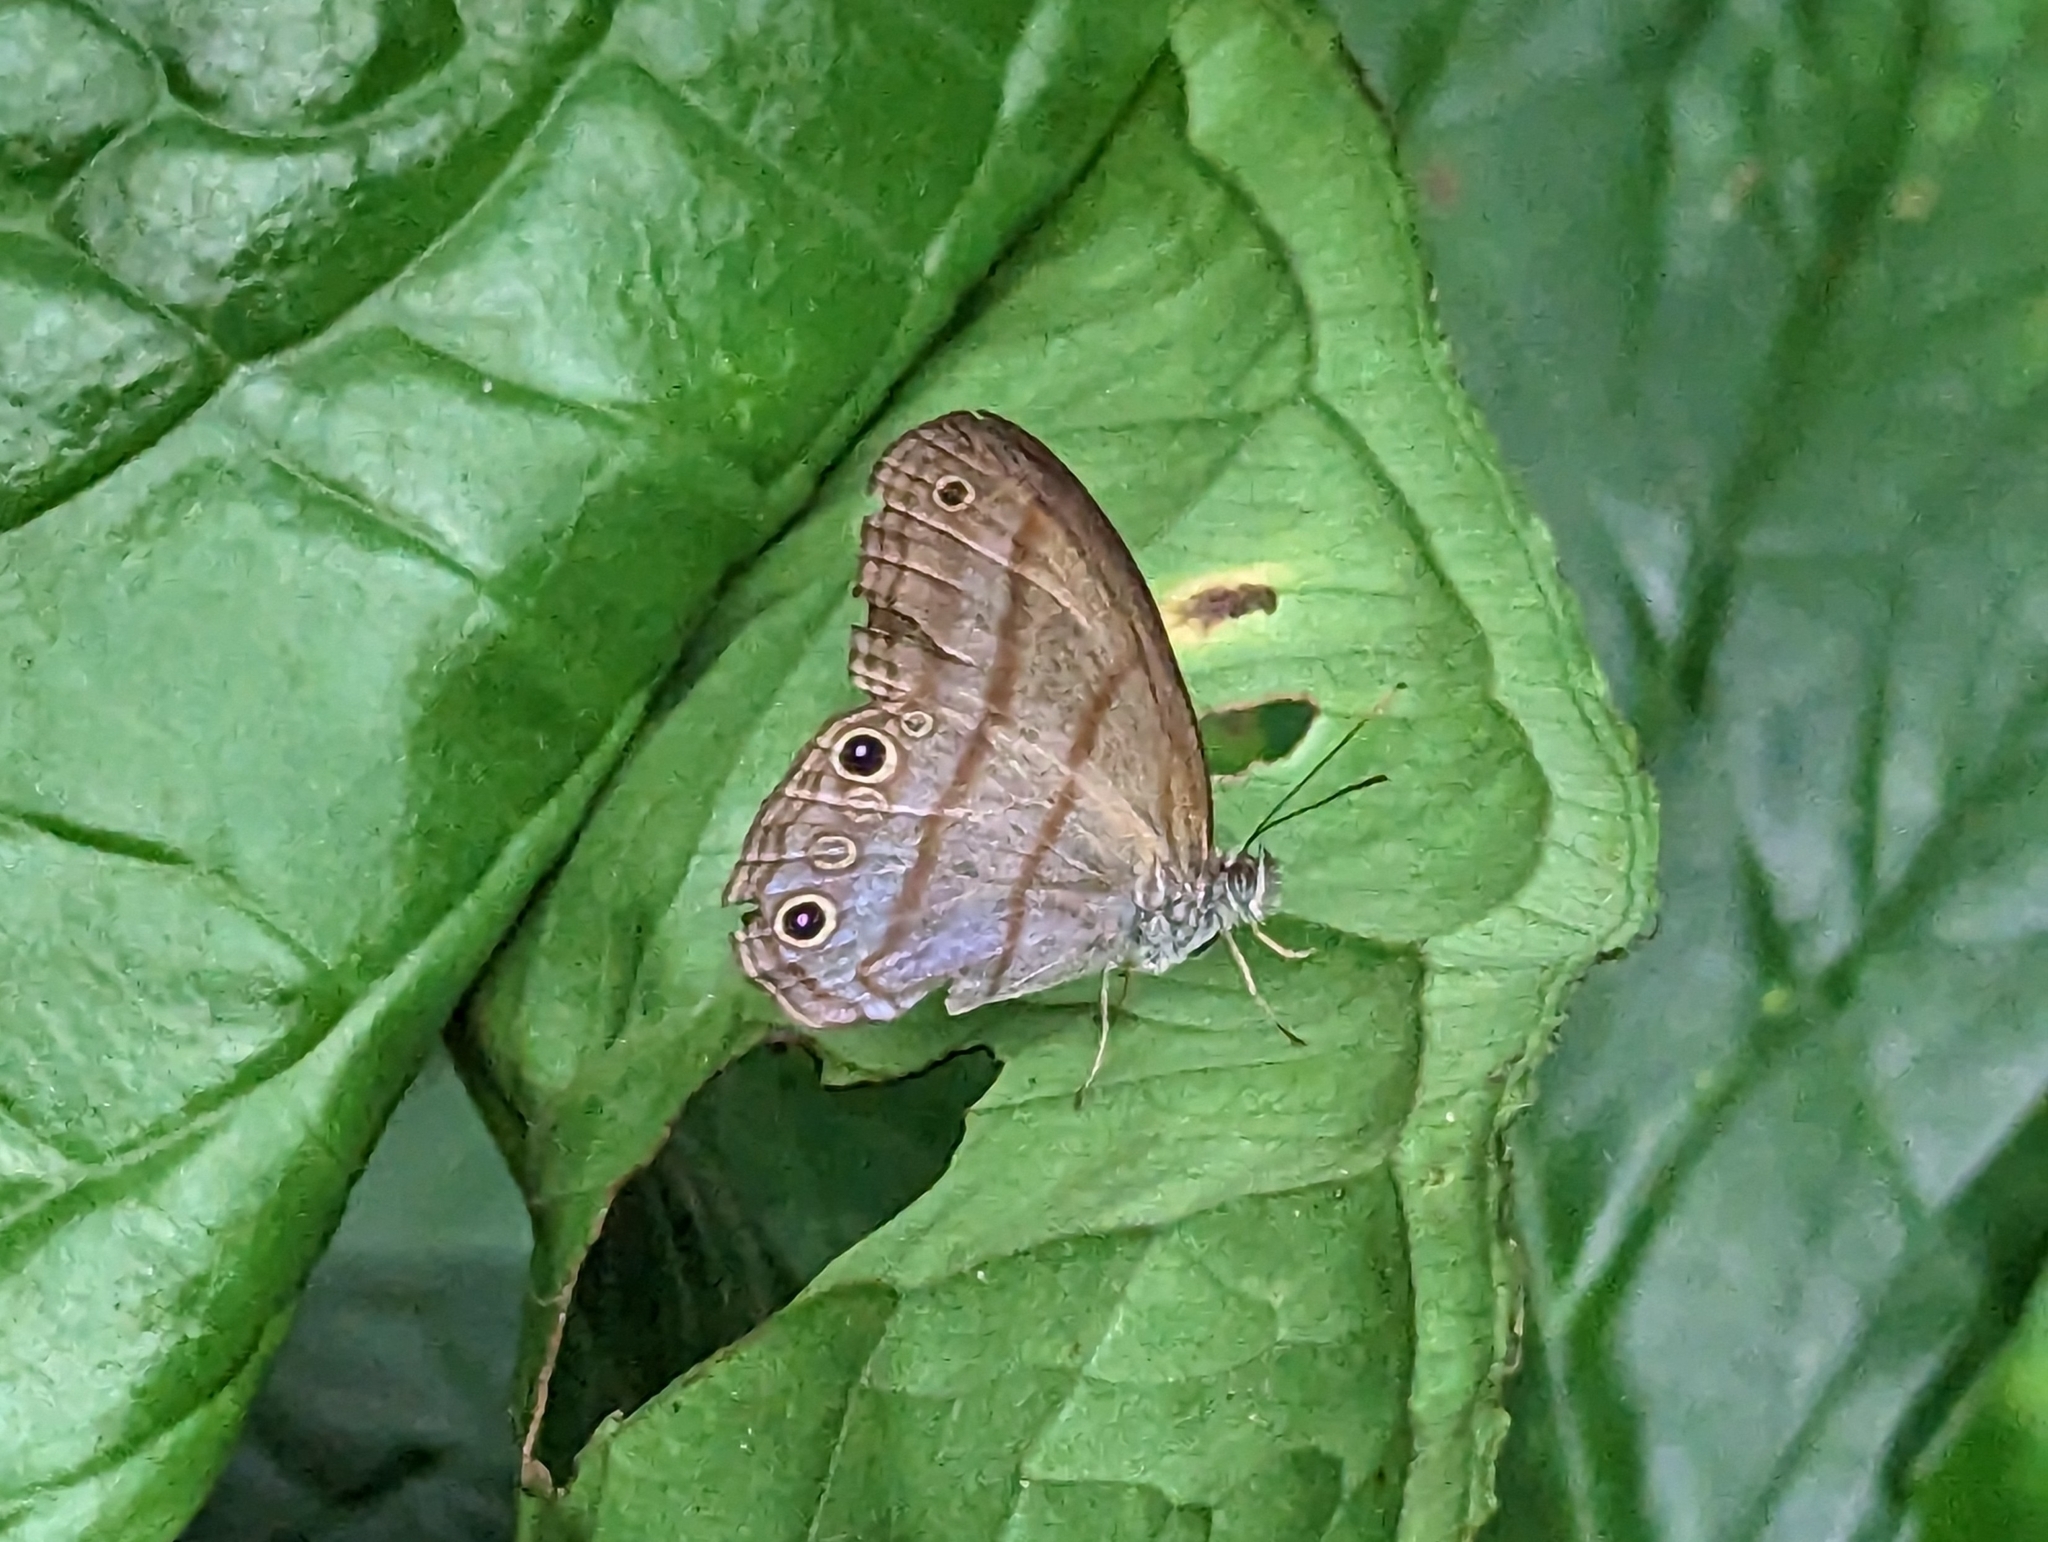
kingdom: Animalia
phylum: Arthropoda
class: Insecta
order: Lepidoptera
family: Nymphalidae
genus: Amiga
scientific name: Amiga arnaca
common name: Blue-topped satyr
